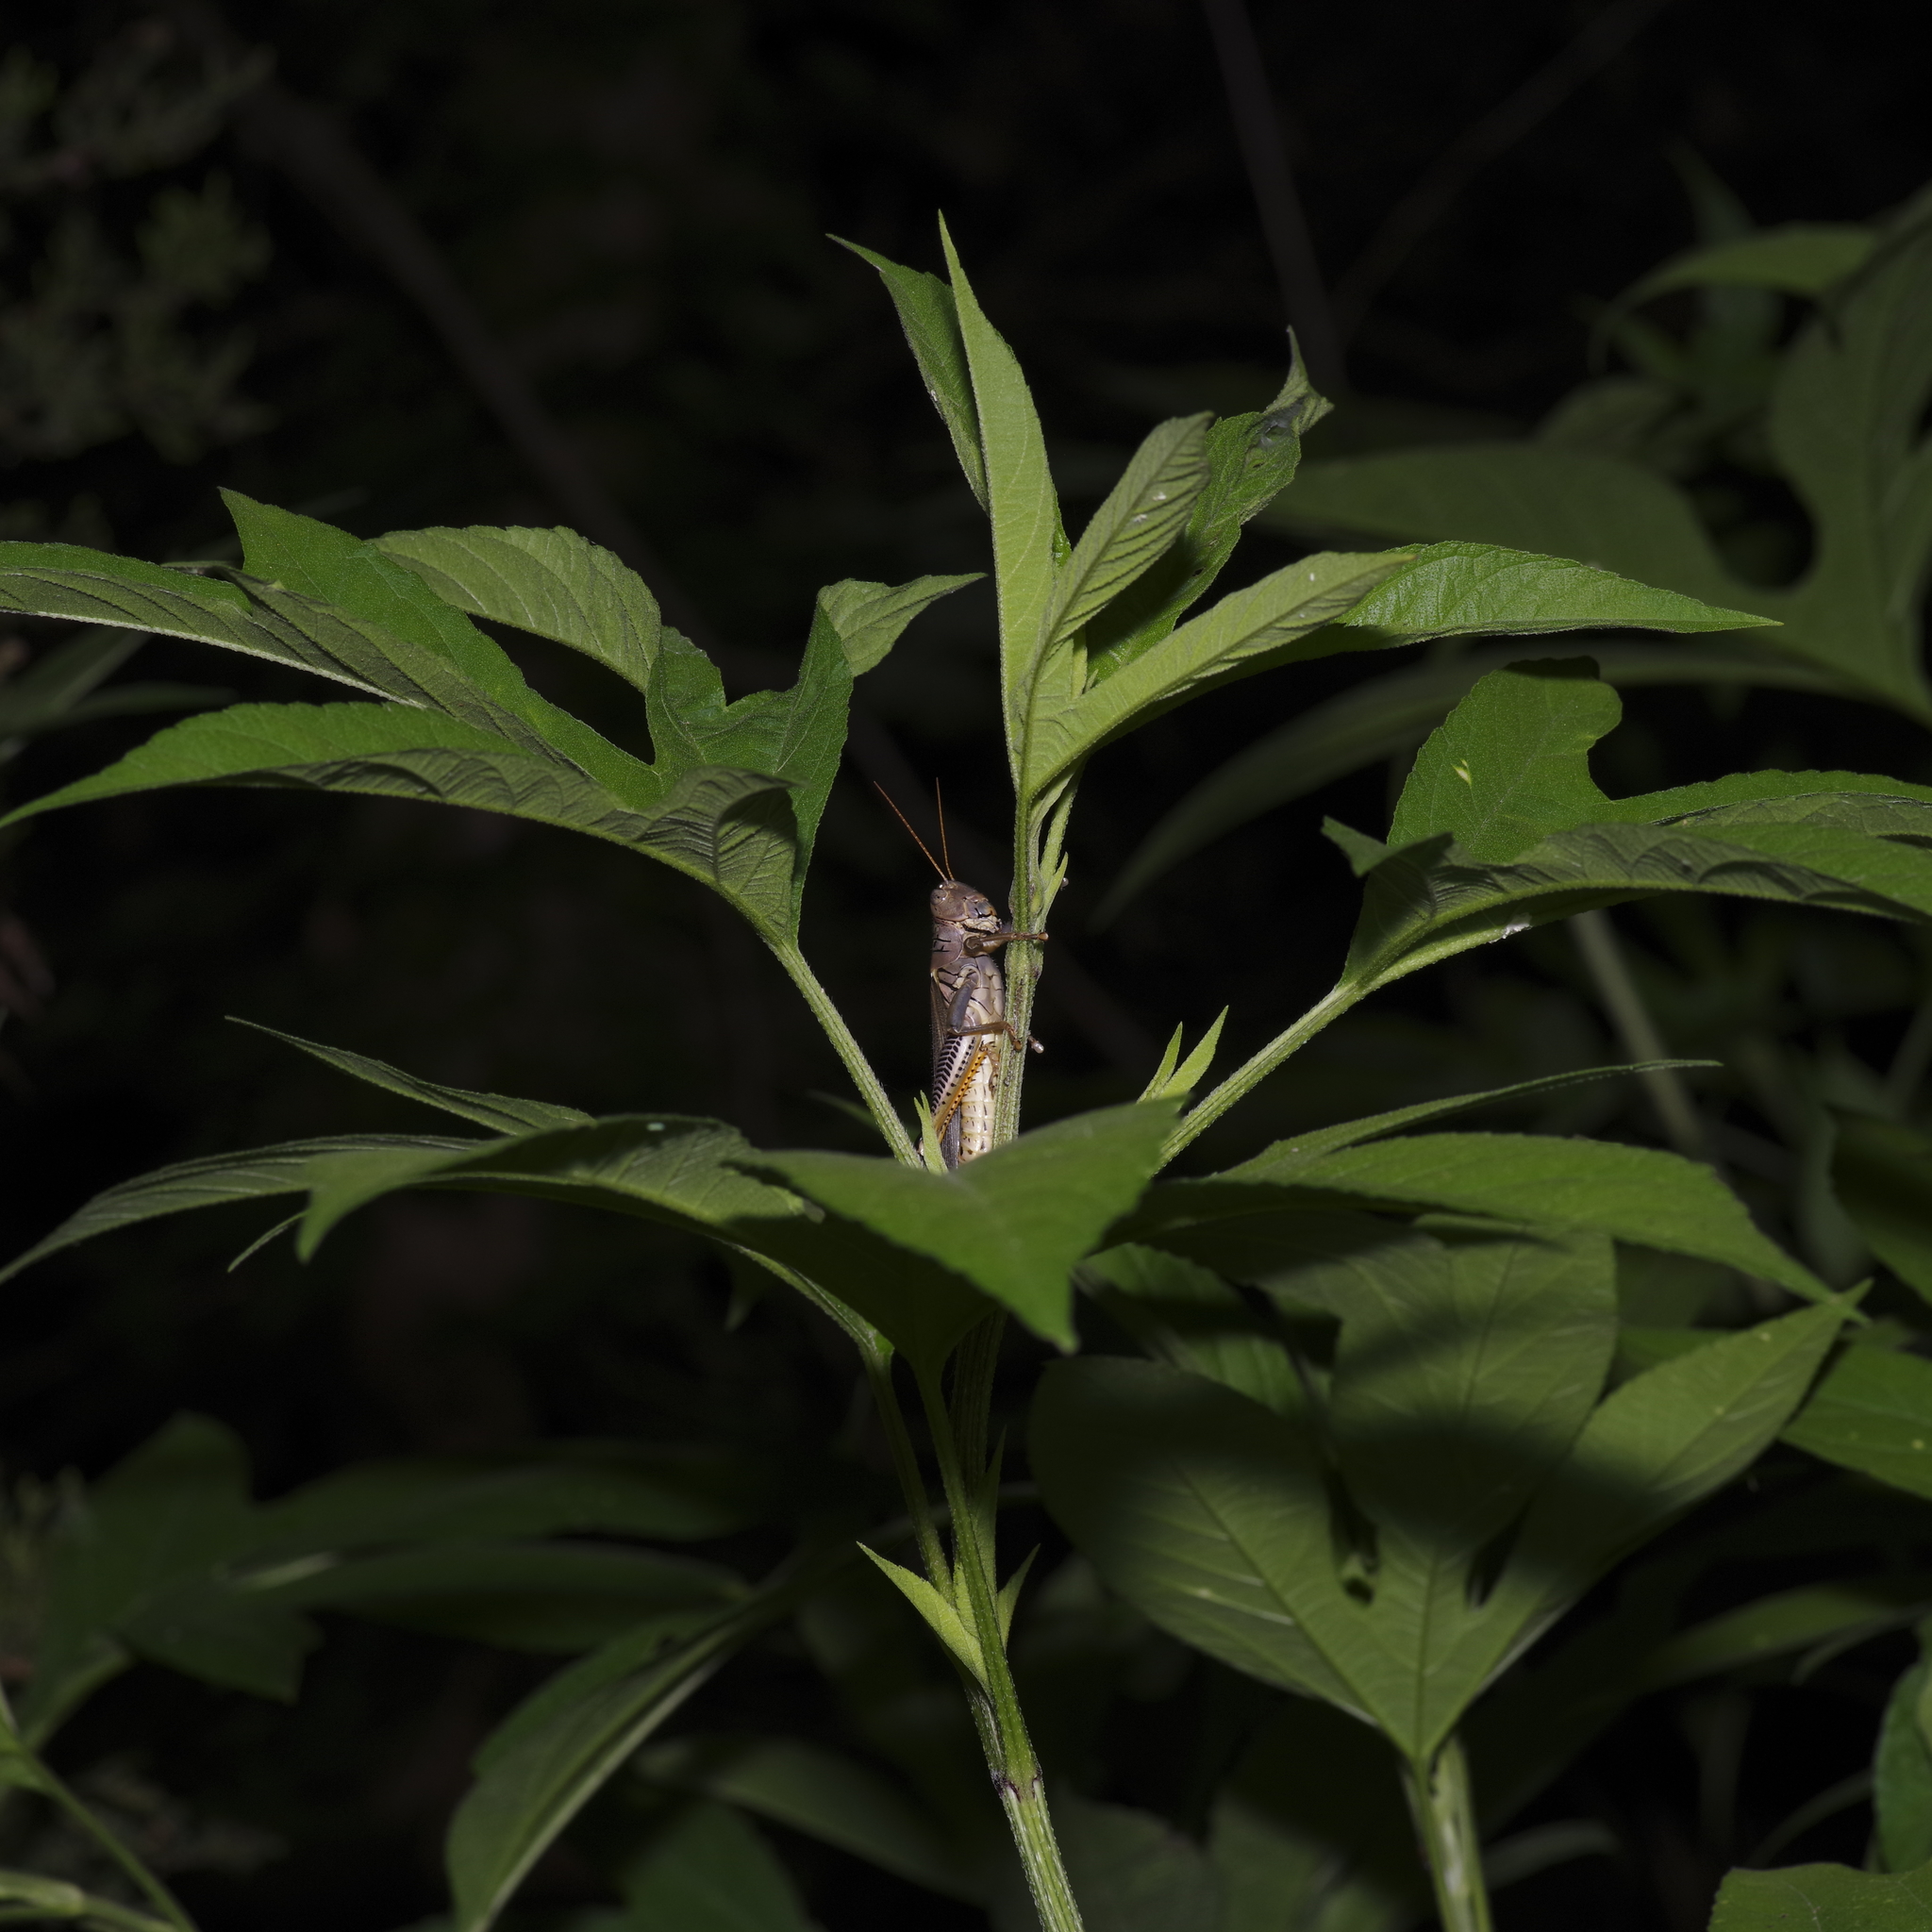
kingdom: Animalia
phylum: Arthropoda
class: Insecta
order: Orthoptera
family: Acrididae
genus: Melanoplus
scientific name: Melanoplus differentialis
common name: Differential grasshopper
